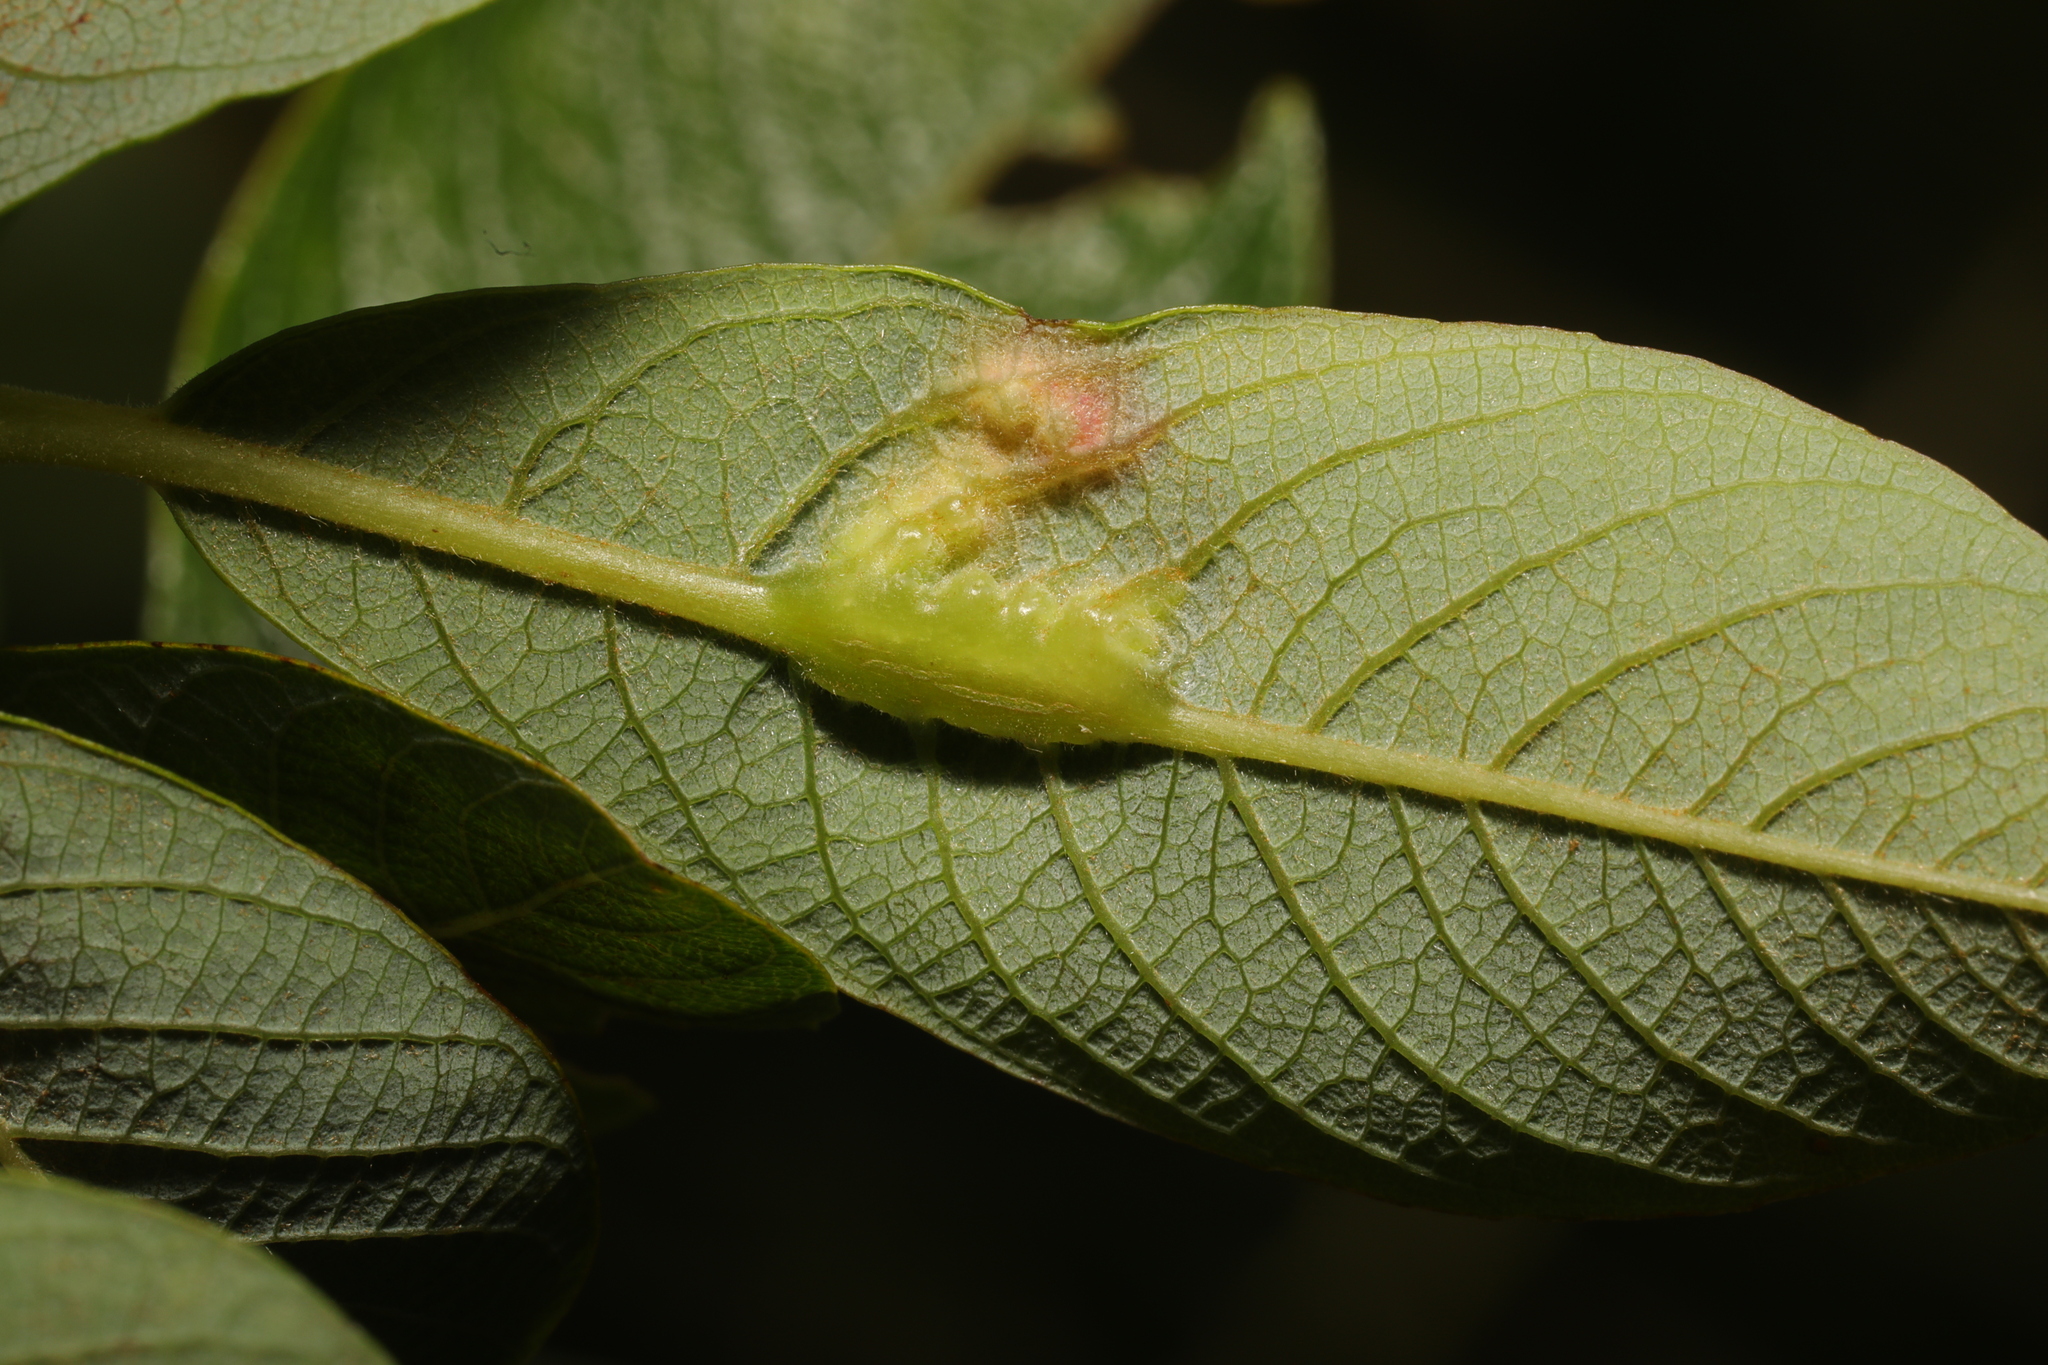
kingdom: Animalia
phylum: Arthropoda
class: Insecta
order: Diptera
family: Cecidomyiidae
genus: Iteomyia
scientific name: Iteomyia major
